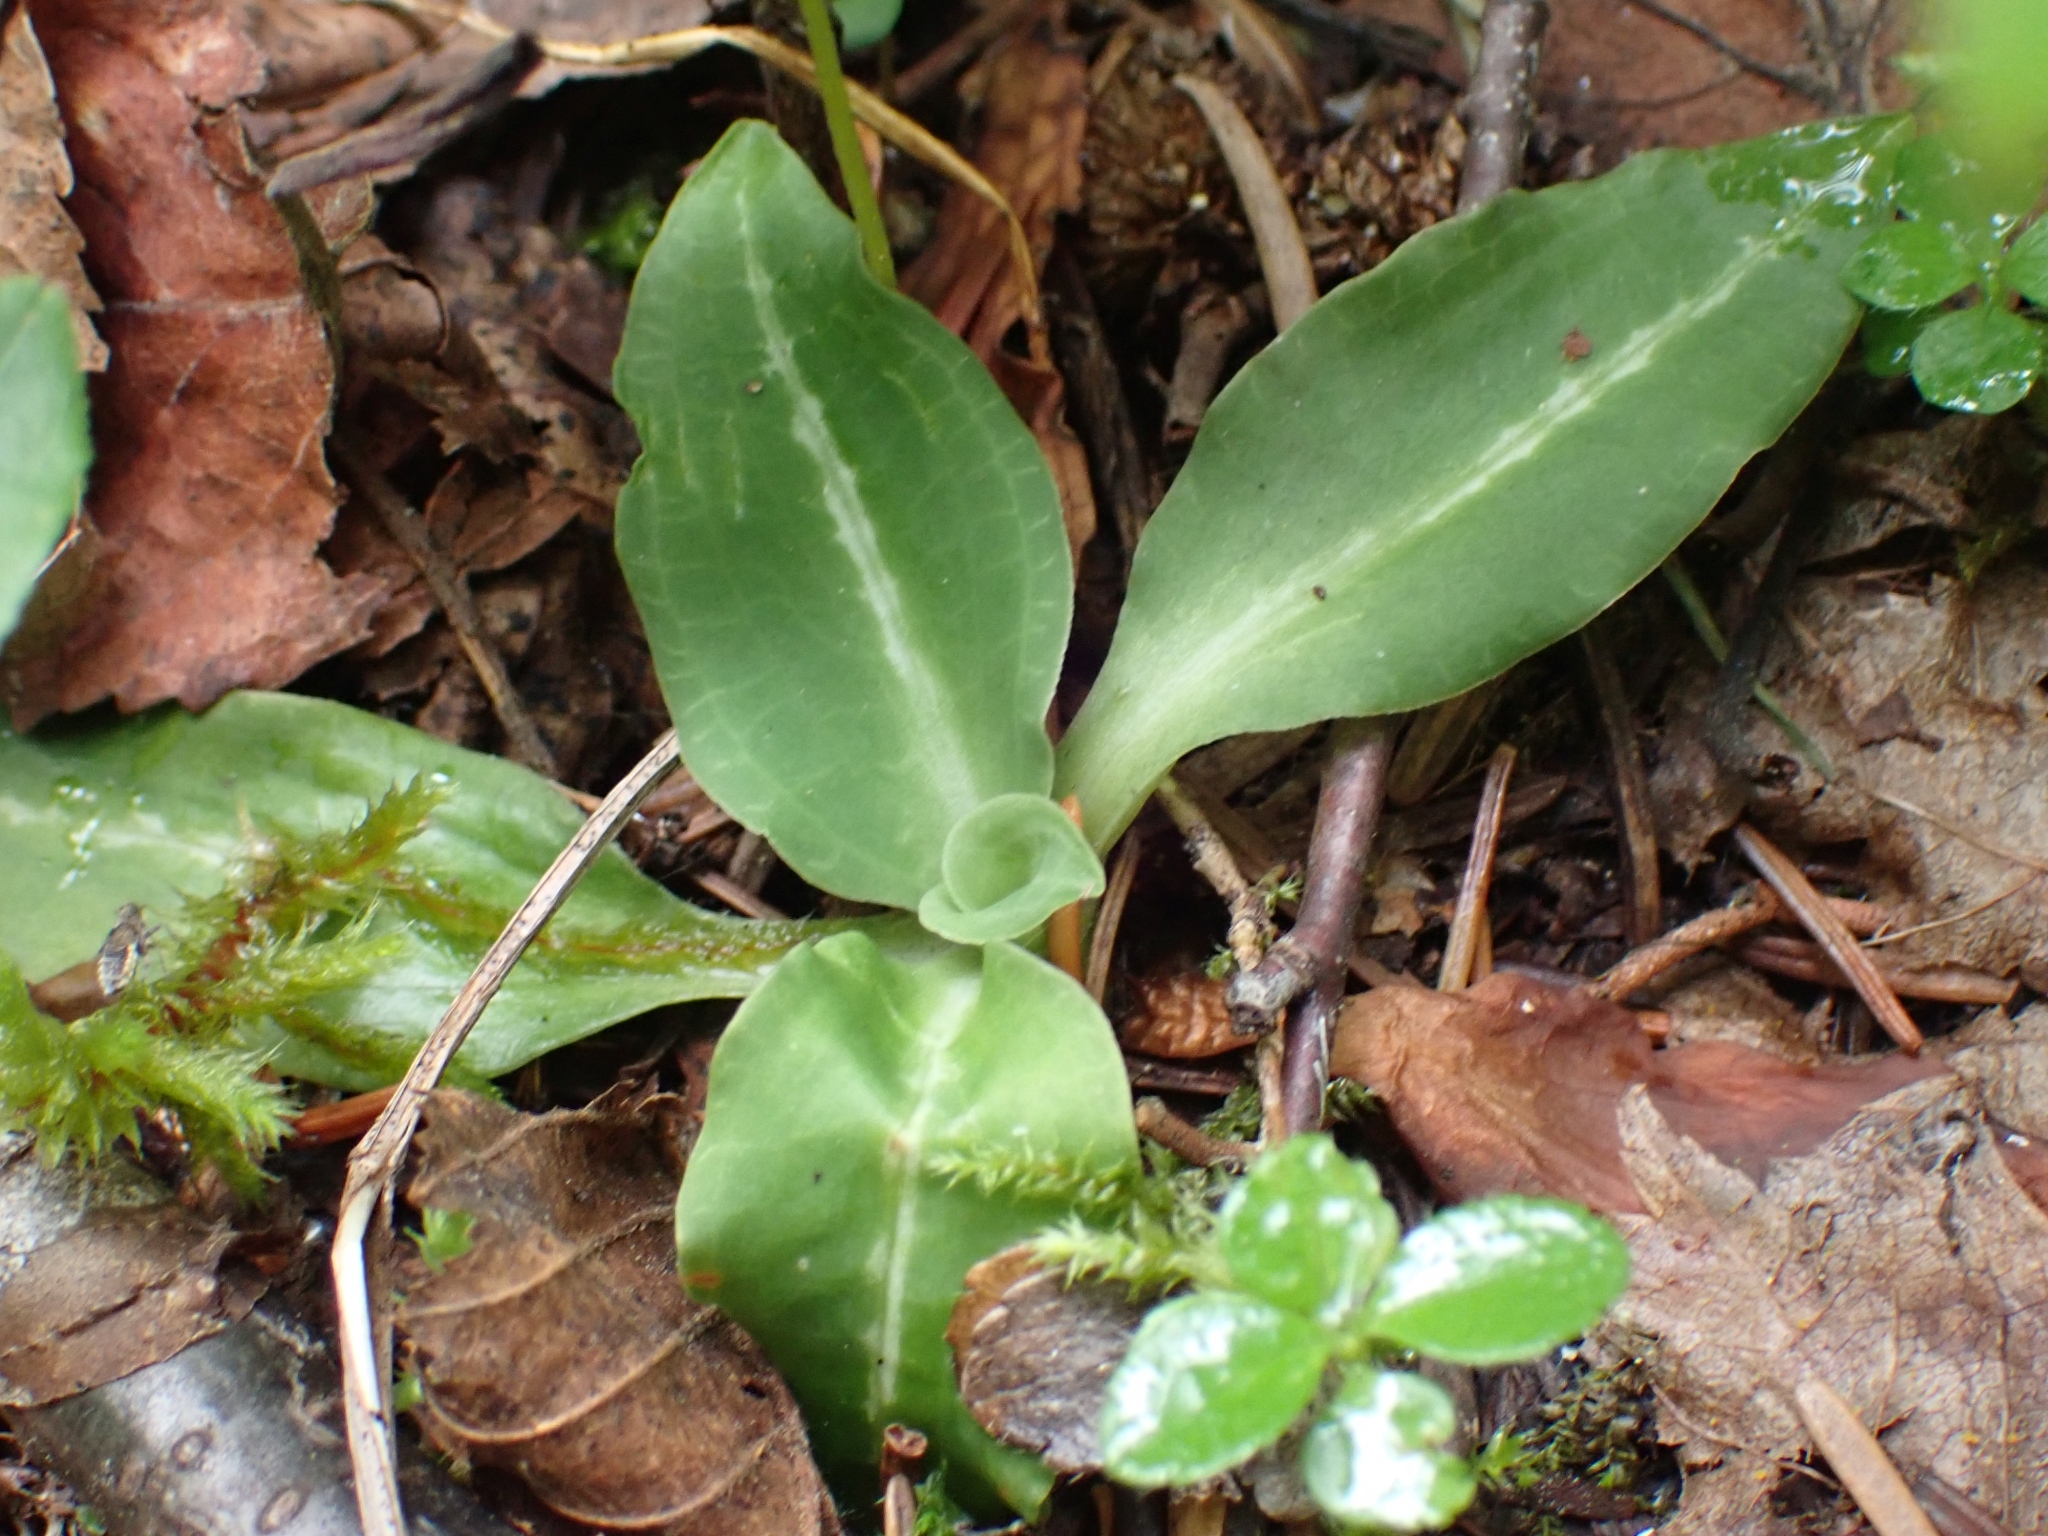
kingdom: Plantae
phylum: Tracheophyta
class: Liliopsida
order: Asparagales
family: Orchidaceae
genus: Goodyera
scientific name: Goodyera oblongifolia
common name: Giant rattlesnake-plantain
